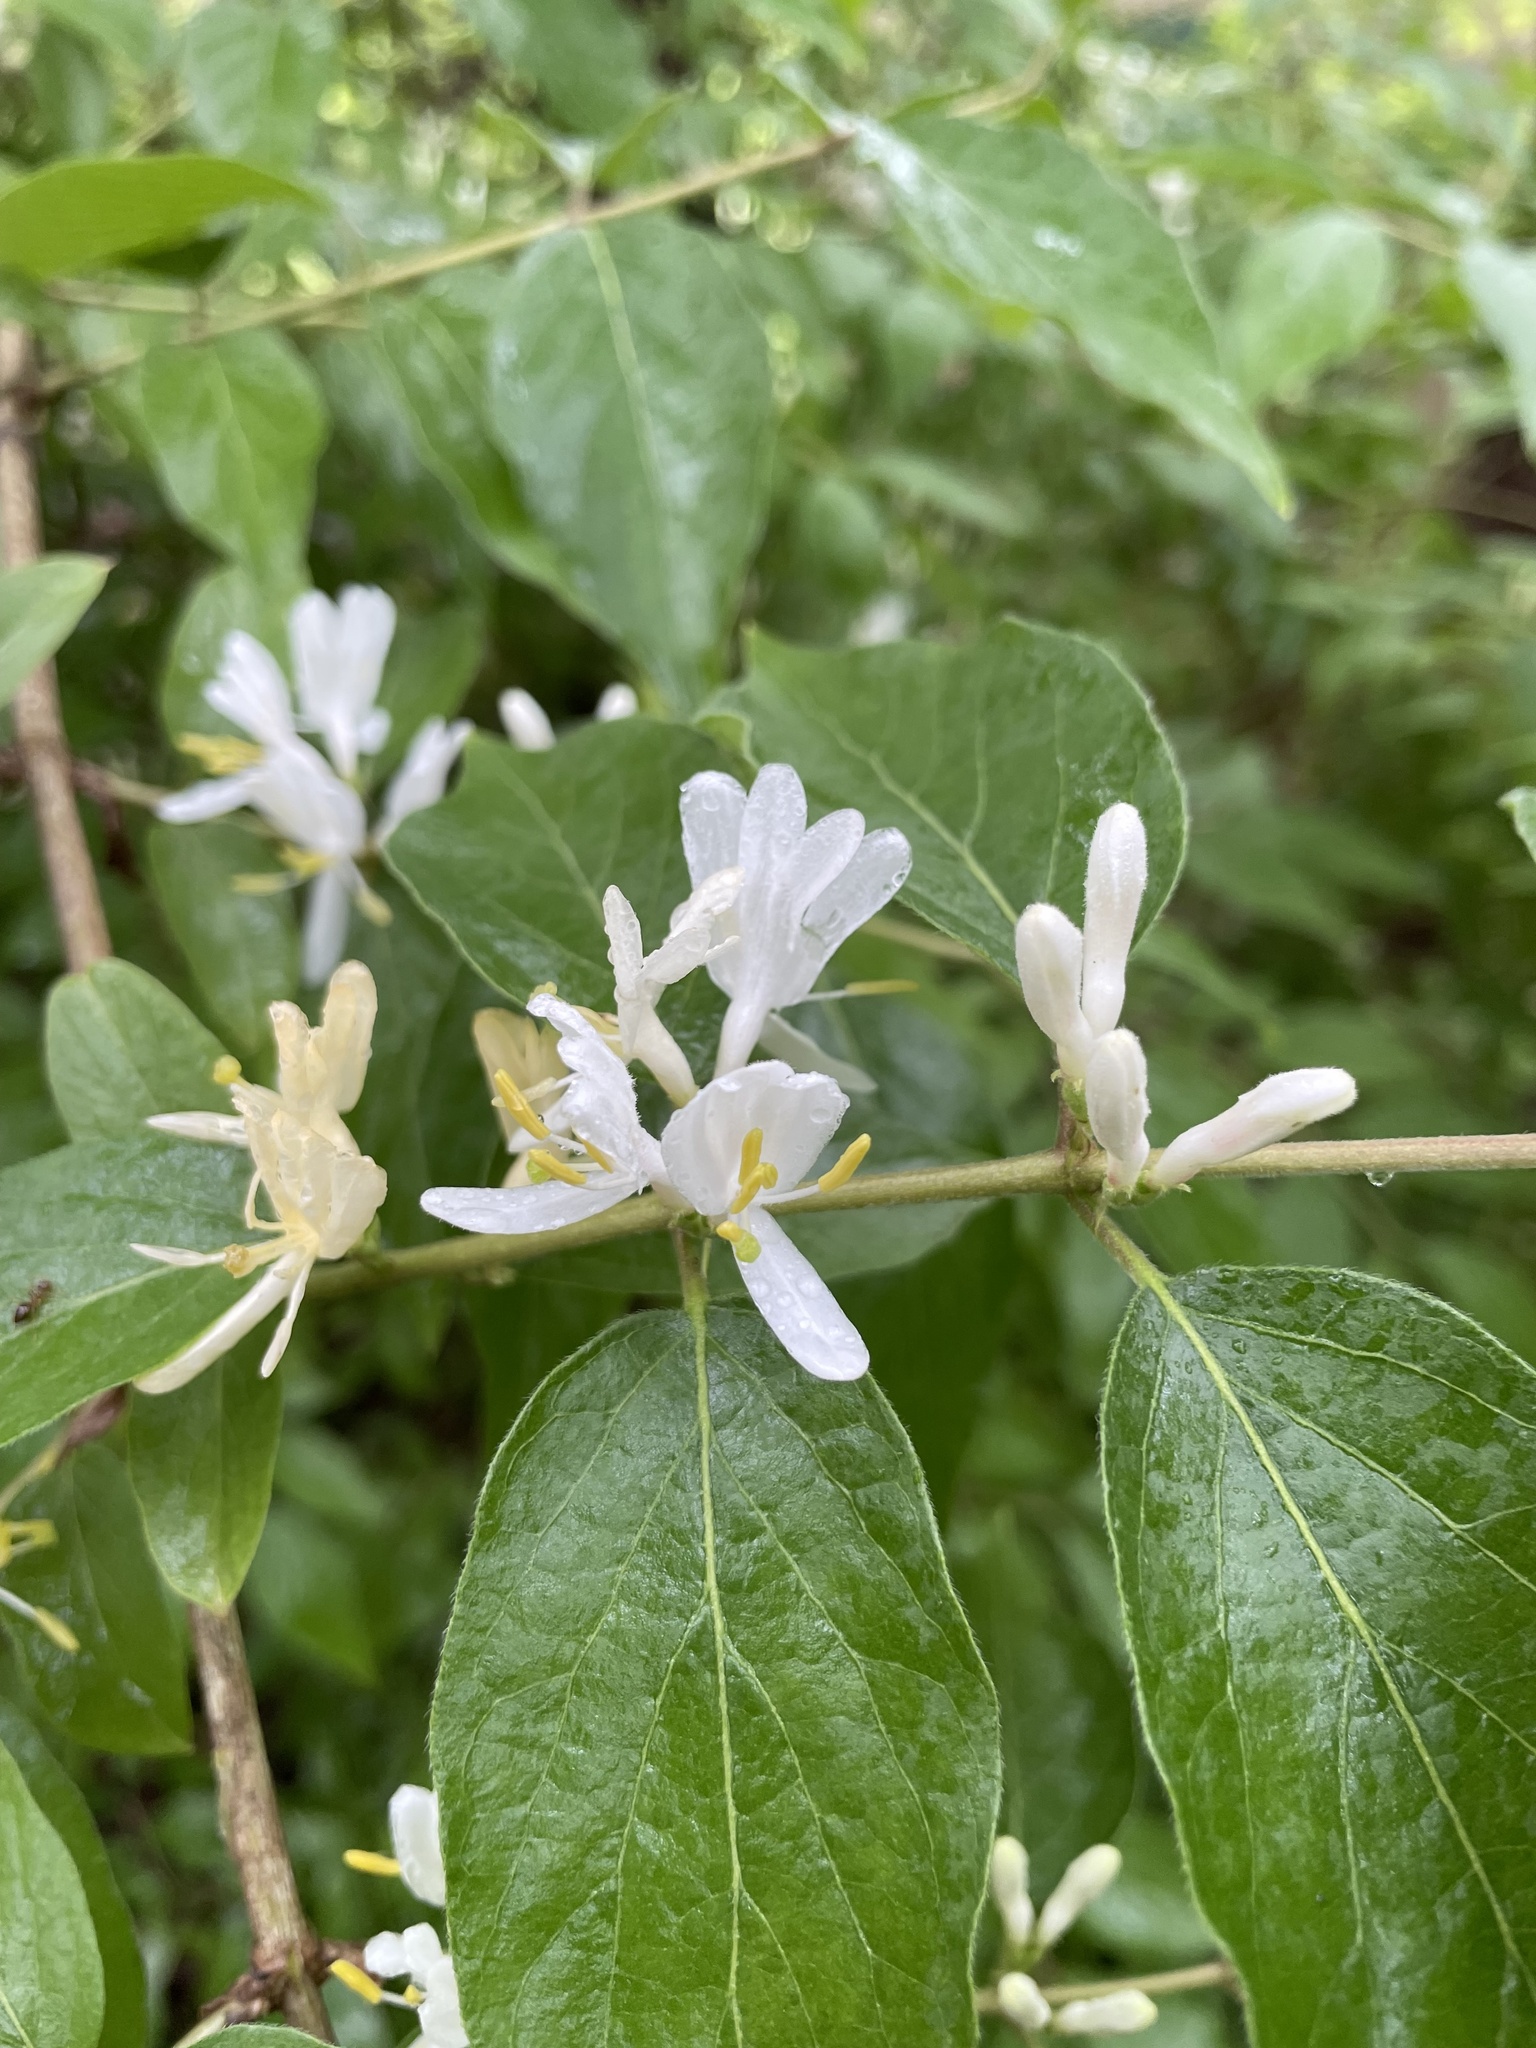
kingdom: Plantae
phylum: Tracheophyta
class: Magnoliopsida
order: Dipsacales
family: Caprifoliaceae
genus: Lonicera
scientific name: Lonicera maackii
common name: Amur honeysuckle
